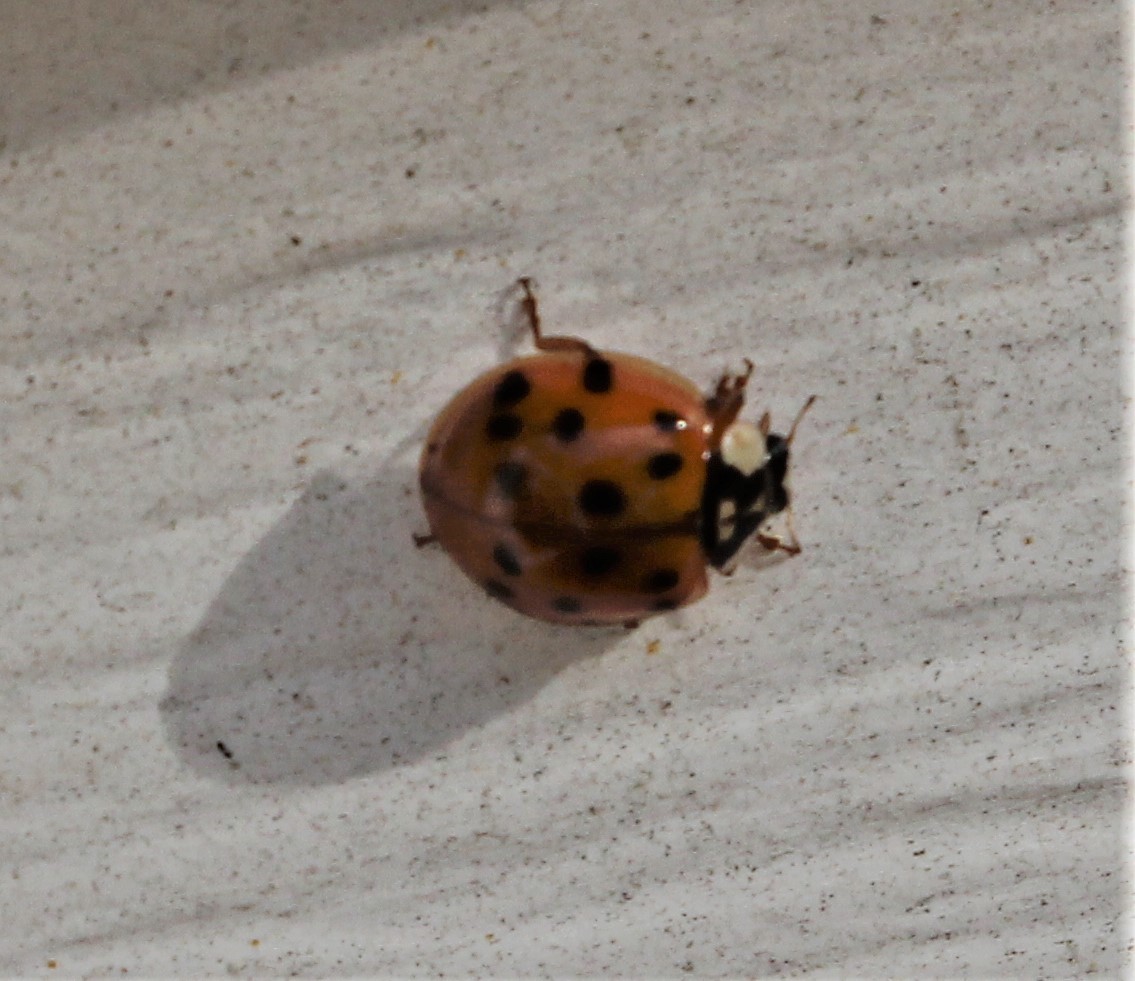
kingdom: Animalia
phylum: Arthropoda
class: Insecta
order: Coleoptera
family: Coccinellidae
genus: Harmonia
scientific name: Harmonia axyridis
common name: Harlequin ladybird
